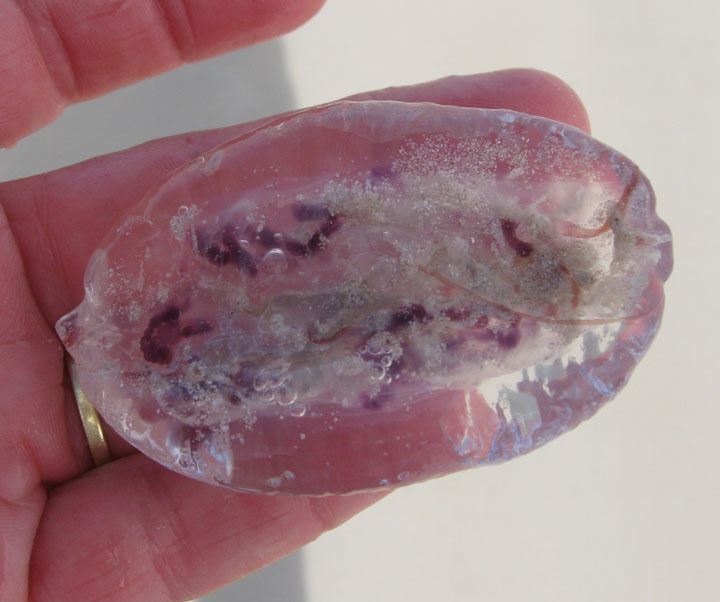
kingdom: Animalia
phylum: Cnidaria
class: Scyphozoa
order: Semaeostomeae
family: Pelagiidae
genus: Pelagia
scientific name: Pelagia noctiluca
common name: Mauve stinger
